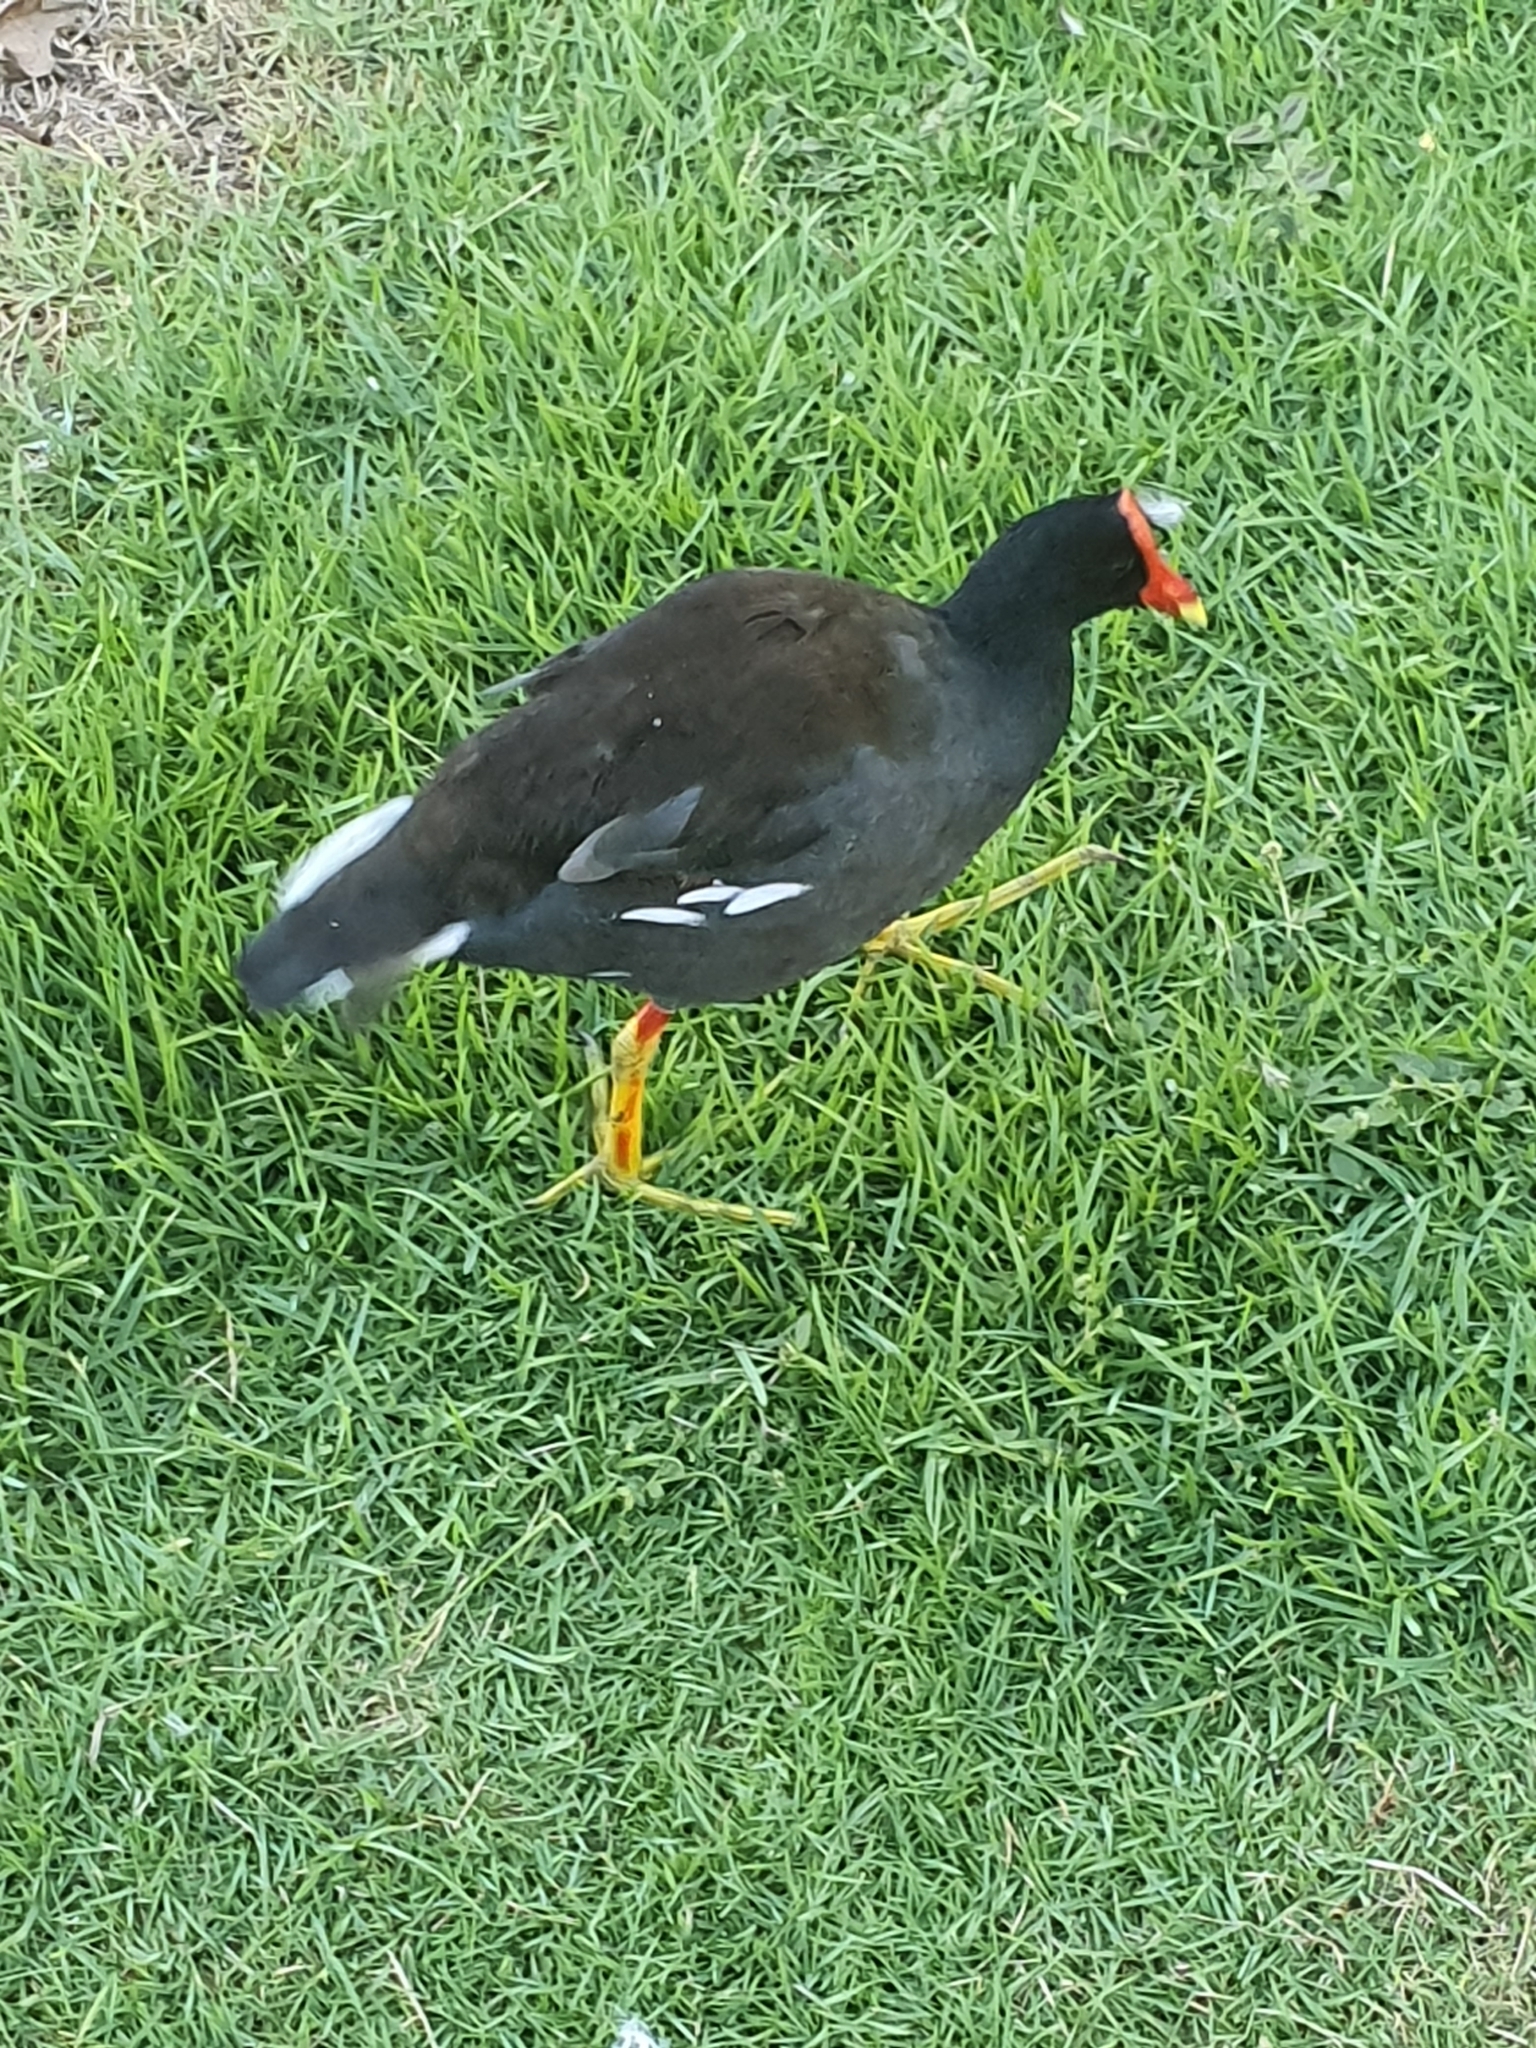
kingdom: Animalia
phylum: Chordata
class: Aves
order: Gruiformes
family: Rallidae
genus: Gallinula
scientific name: Gallinula chloropus
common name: Common moorhen
